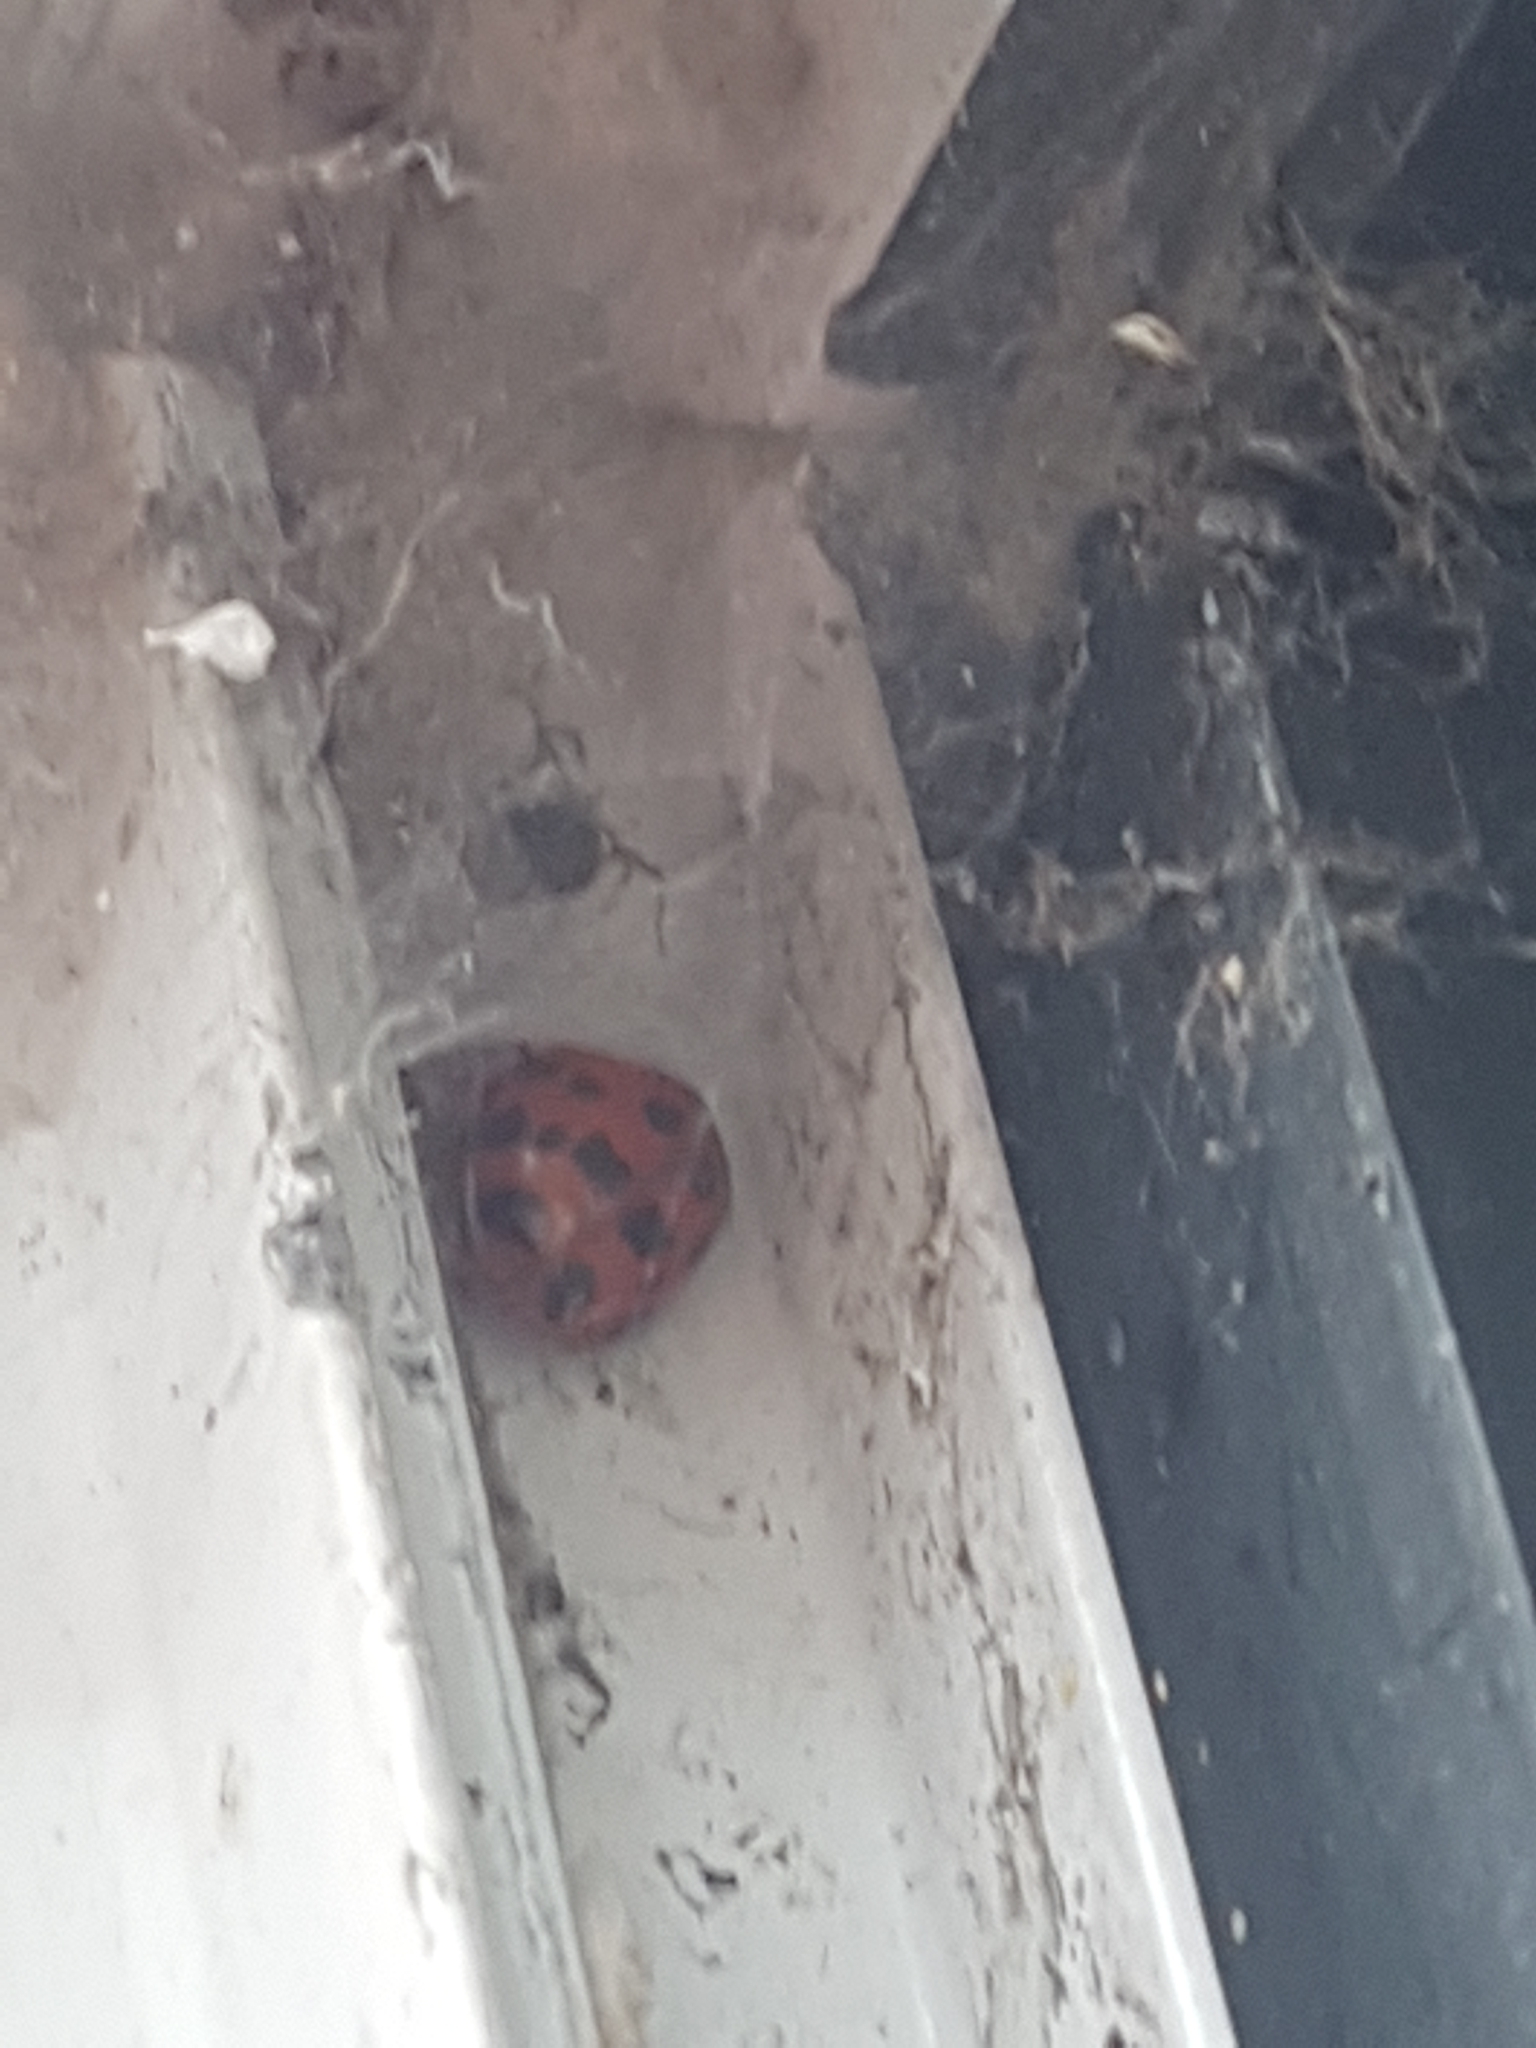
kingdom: Animalia
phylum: Arthropoda
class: Insecta
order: Coleoptera
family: Coccinellidae
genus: Harmonia
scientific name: Harmonia axyridis
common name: Harlequin ladybird
